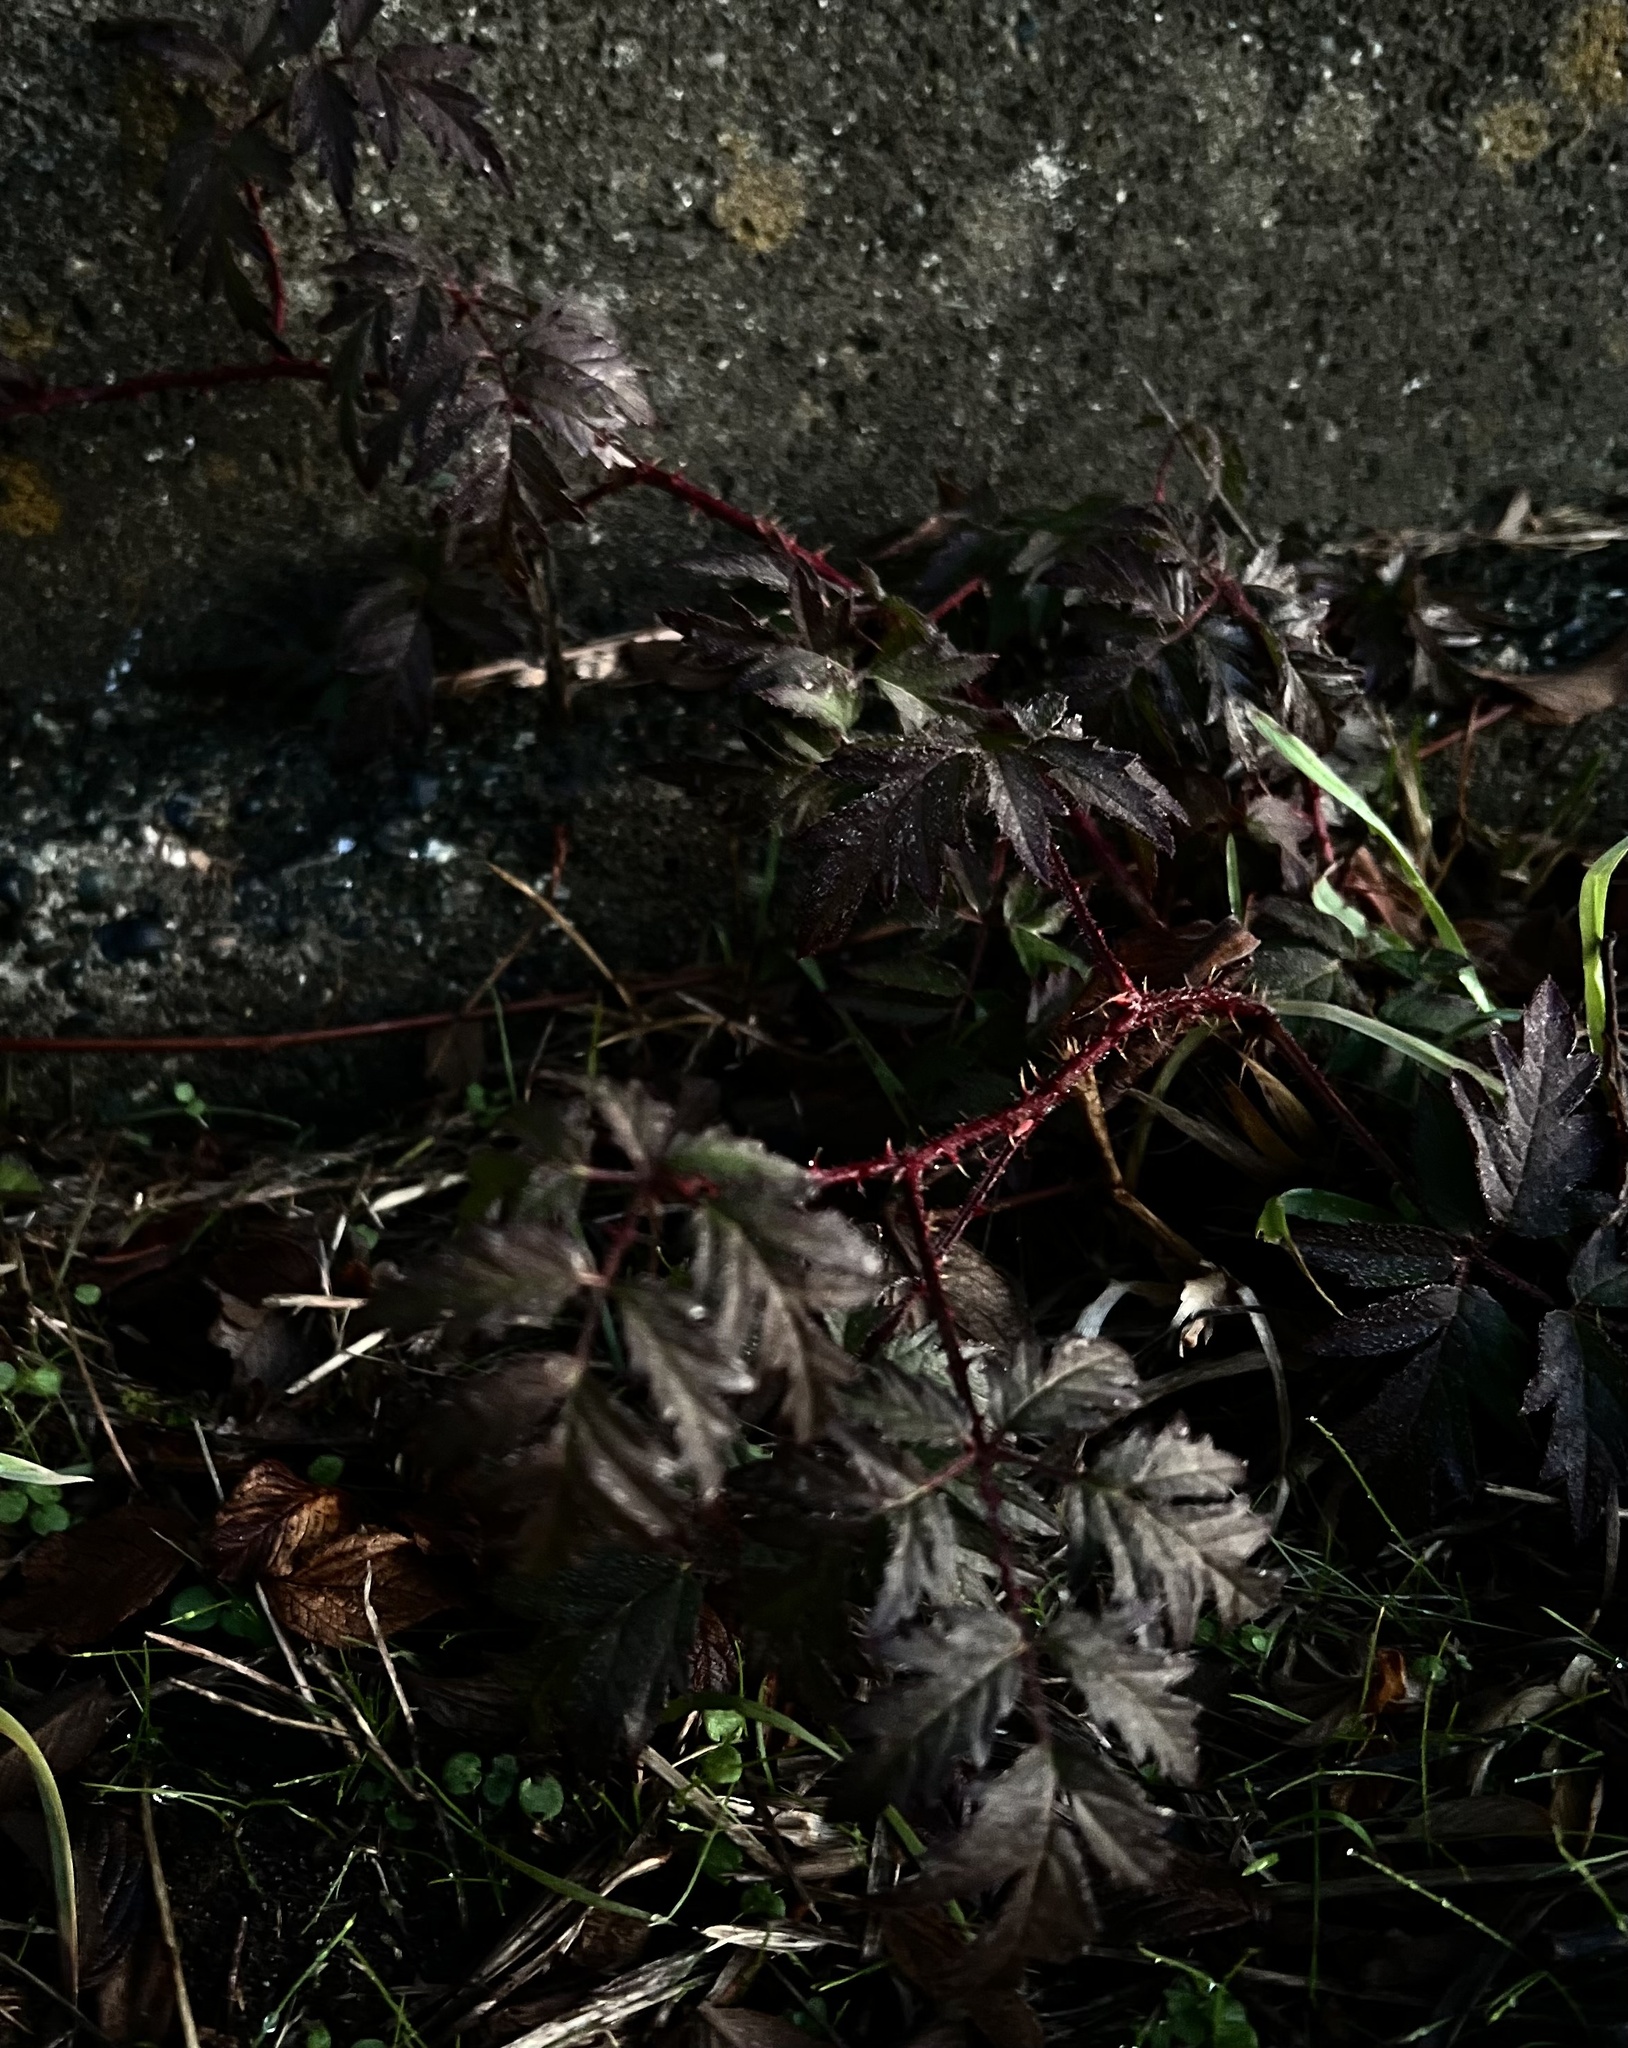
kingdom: Plantae
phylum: Tracheophyta
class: Magnoliopsida
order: Rosales
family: Rosaceae
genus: Rubus
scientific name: Rubus laciniatus
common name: Evergreen blackberry
